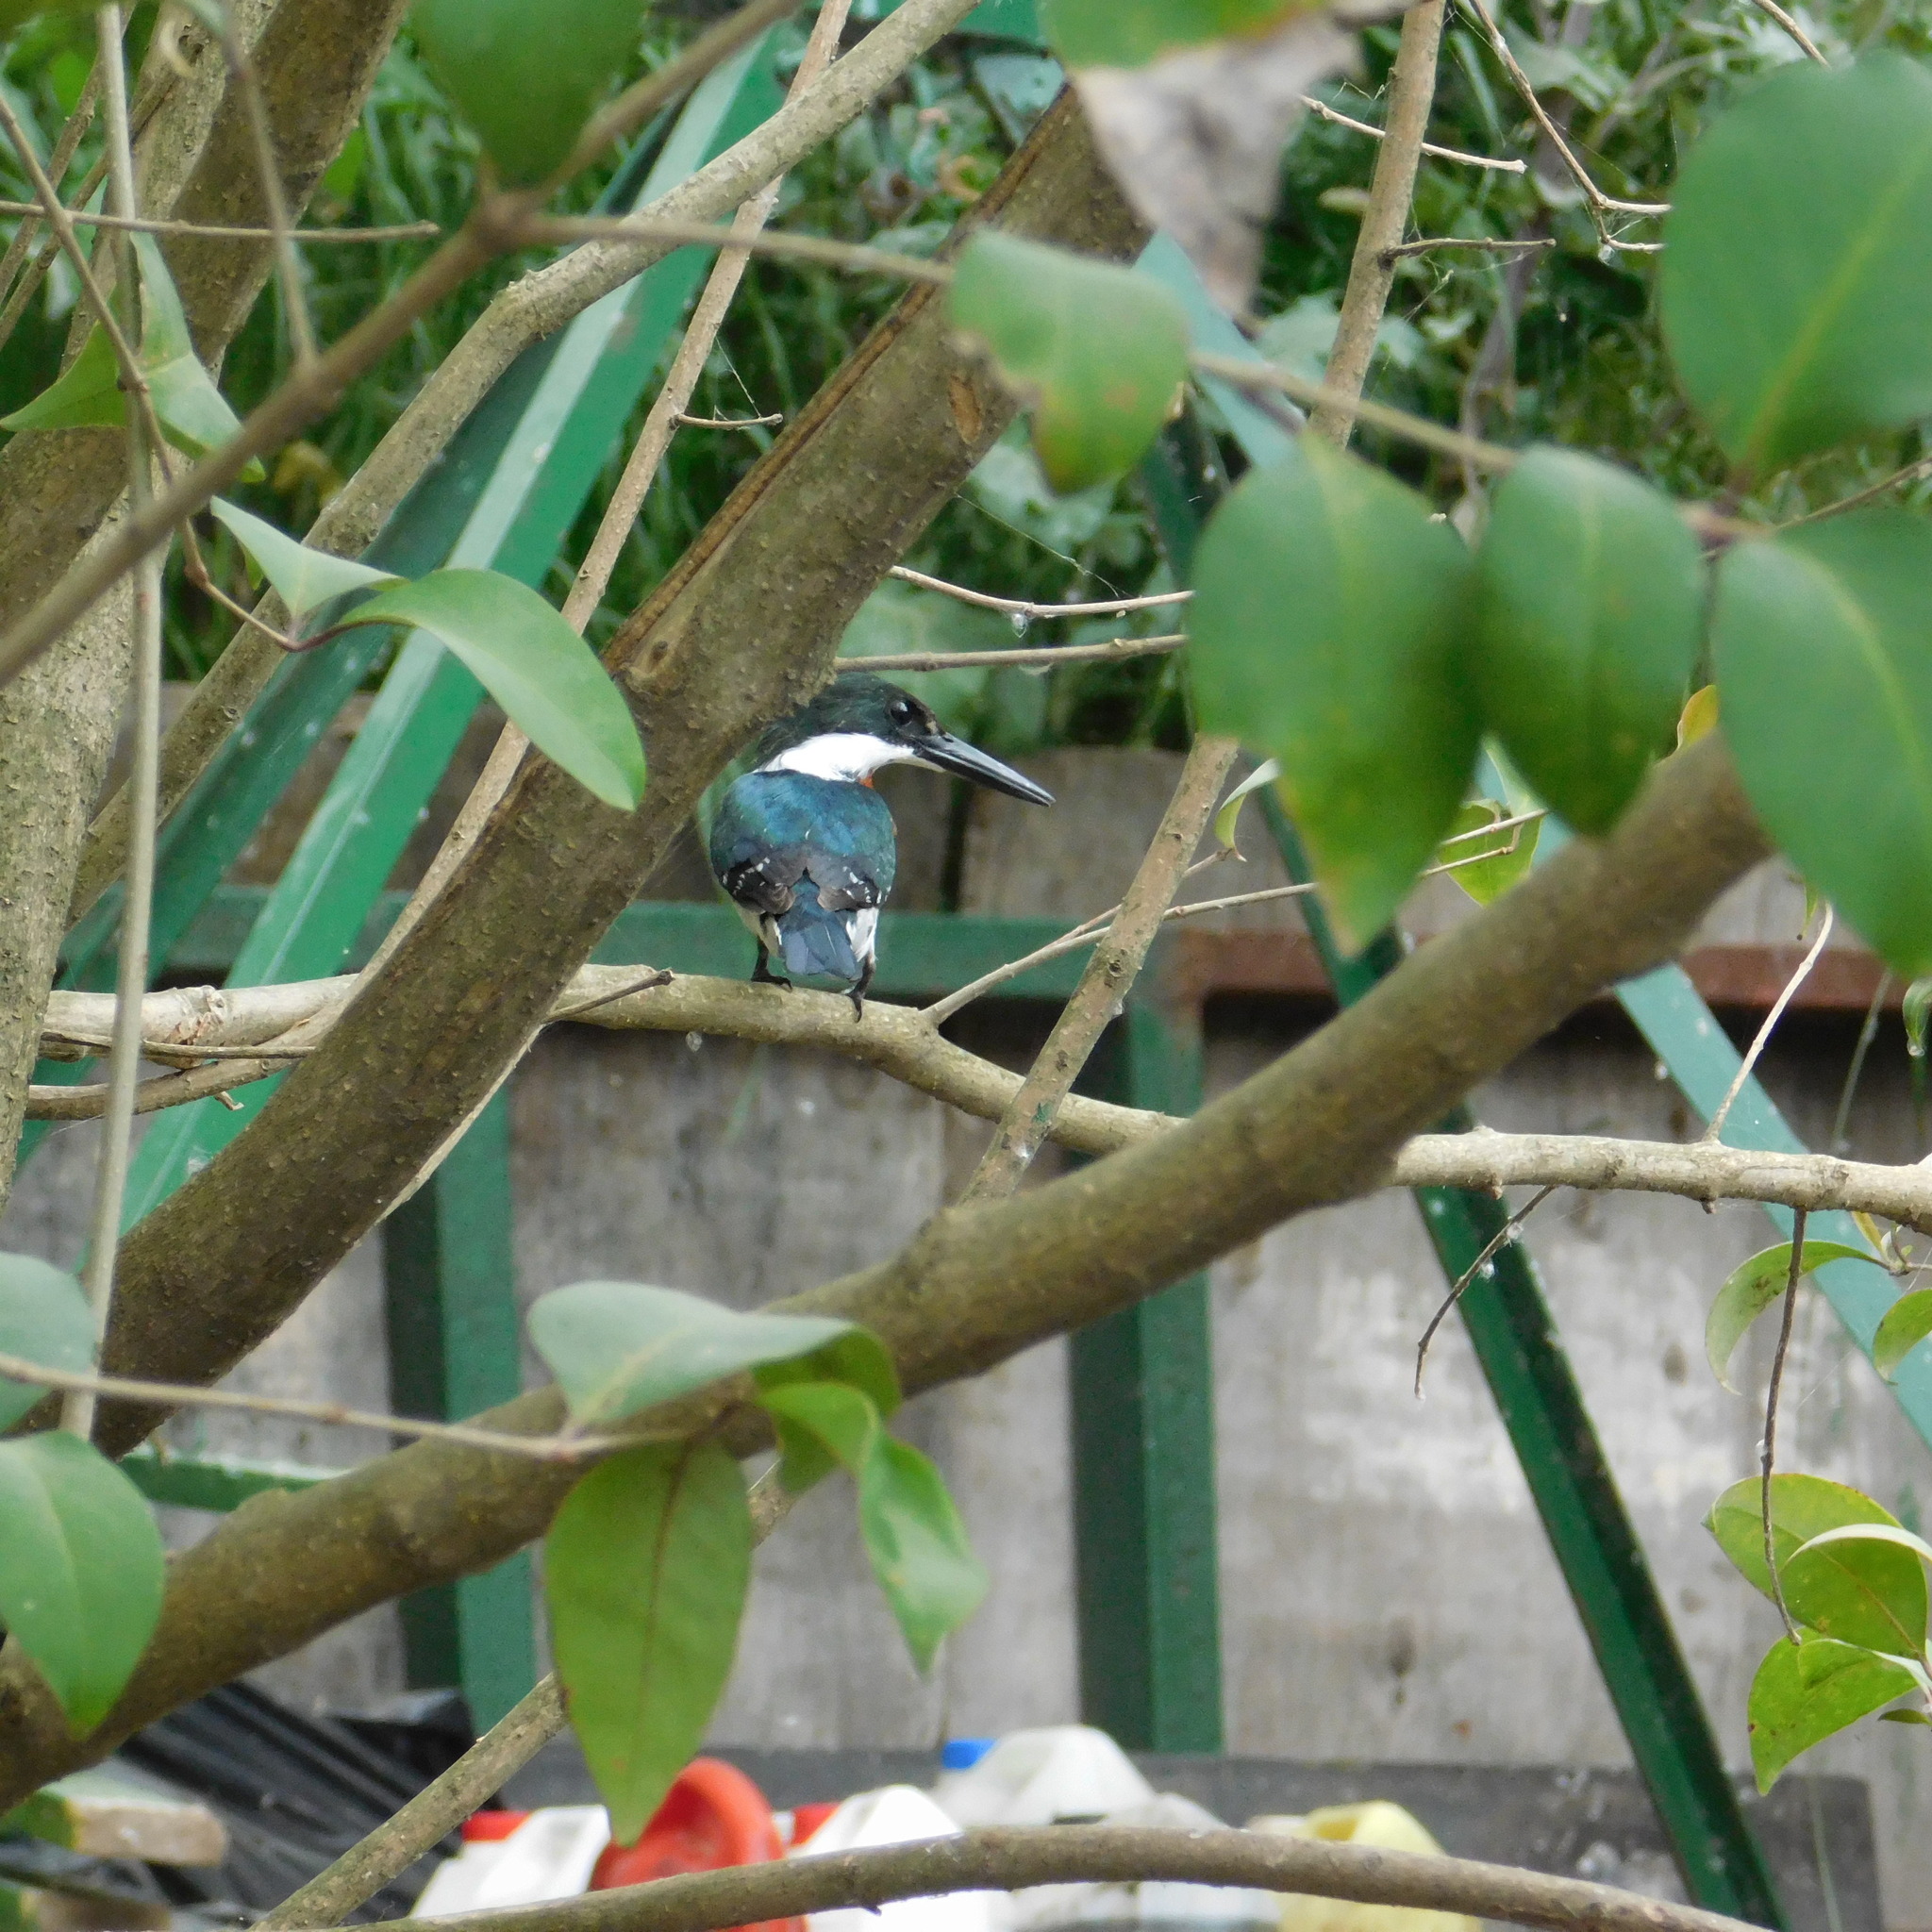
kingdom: Animalia
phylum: Chordata
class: Aves
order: Coraciiformes
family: Alcedinidae
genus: Chloroceryle
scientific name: Chloroceryle americana
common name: Green kingfisher
